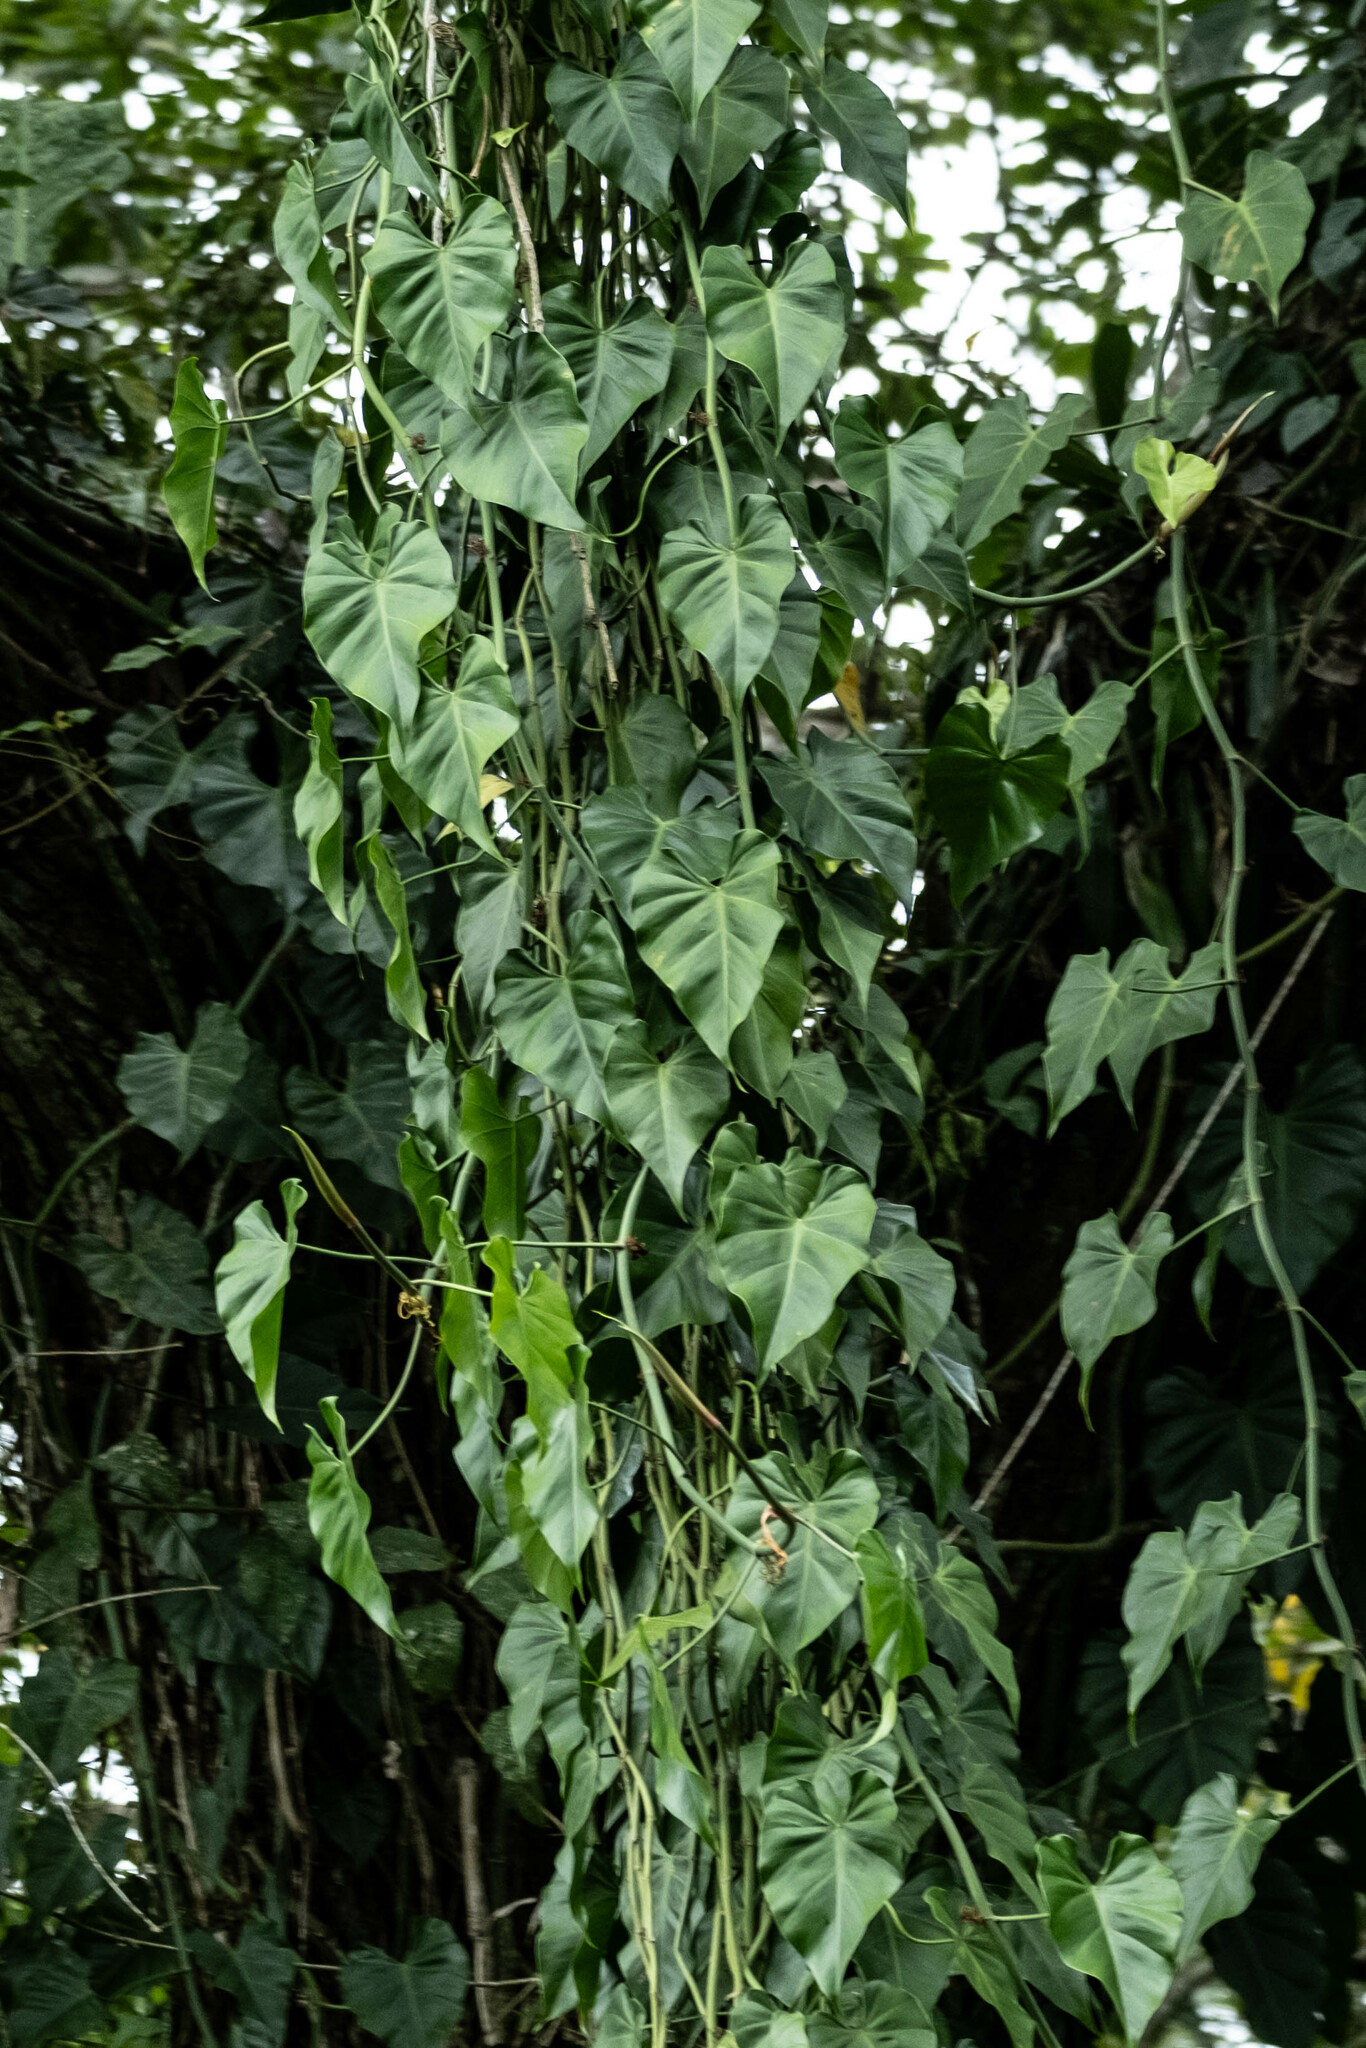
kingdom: Plantae
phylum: Tracheophyta
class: Liliopsida
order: Alismatales
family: Araceae
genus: Philodendron
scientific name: Philodendron hederaceum
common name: Vilevine
